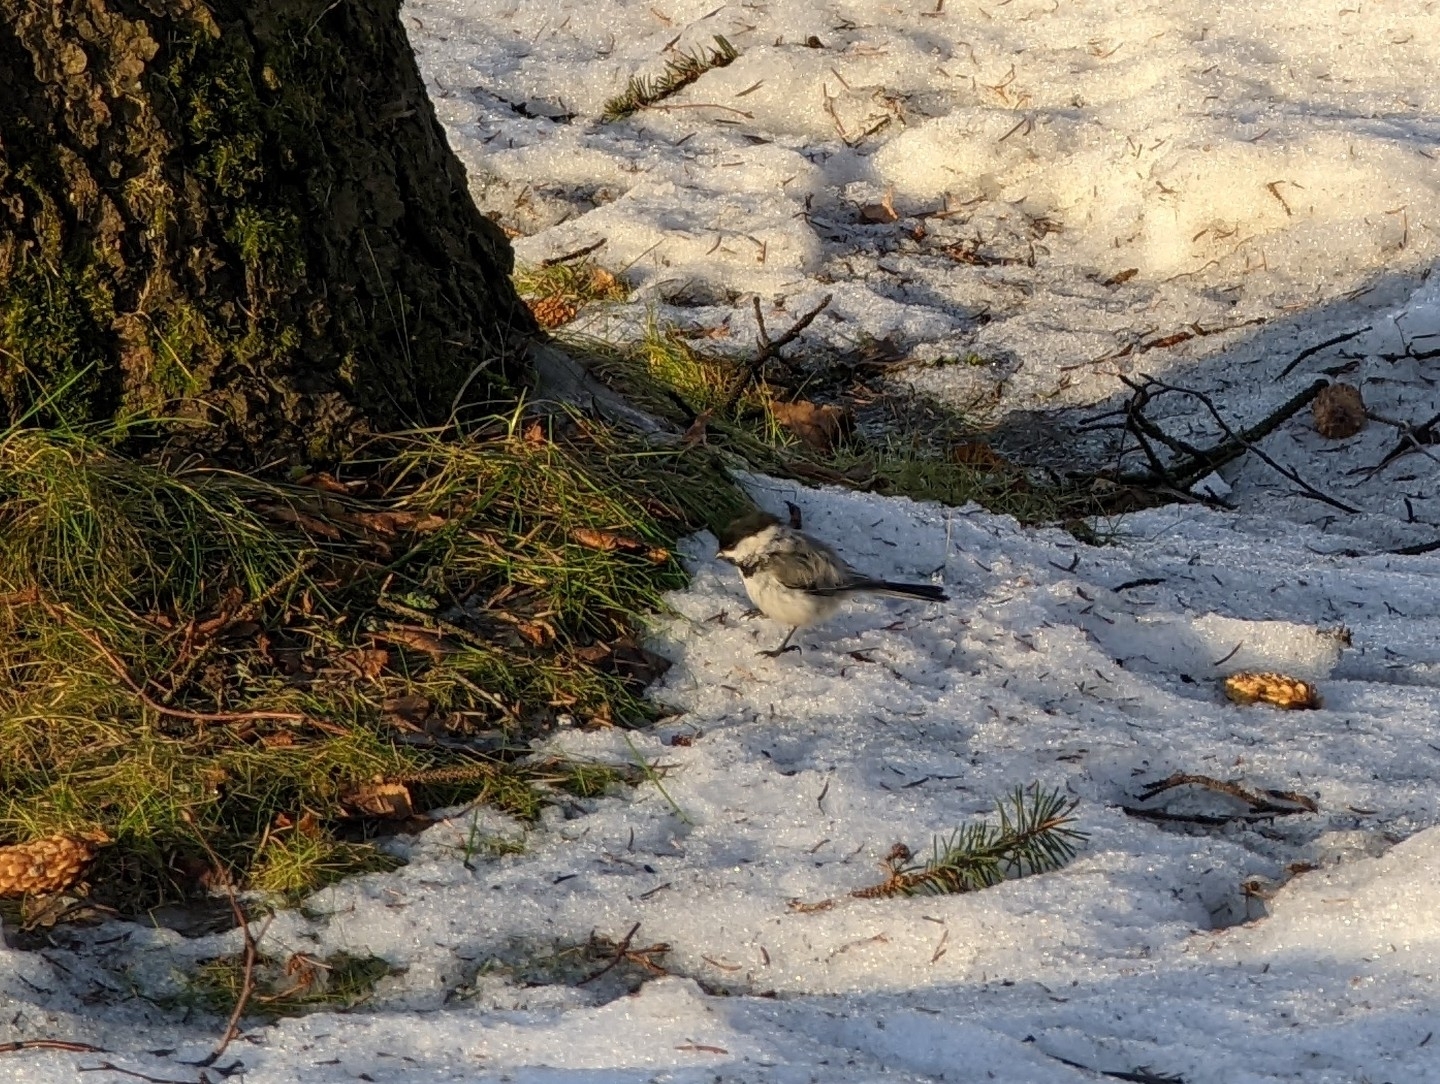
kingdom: Animalia
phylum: Chordata
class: Aves
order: Passeriformes
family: Paridae
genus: Poecile
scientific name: Poecile atricapillus
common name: Black-capped chickadee
